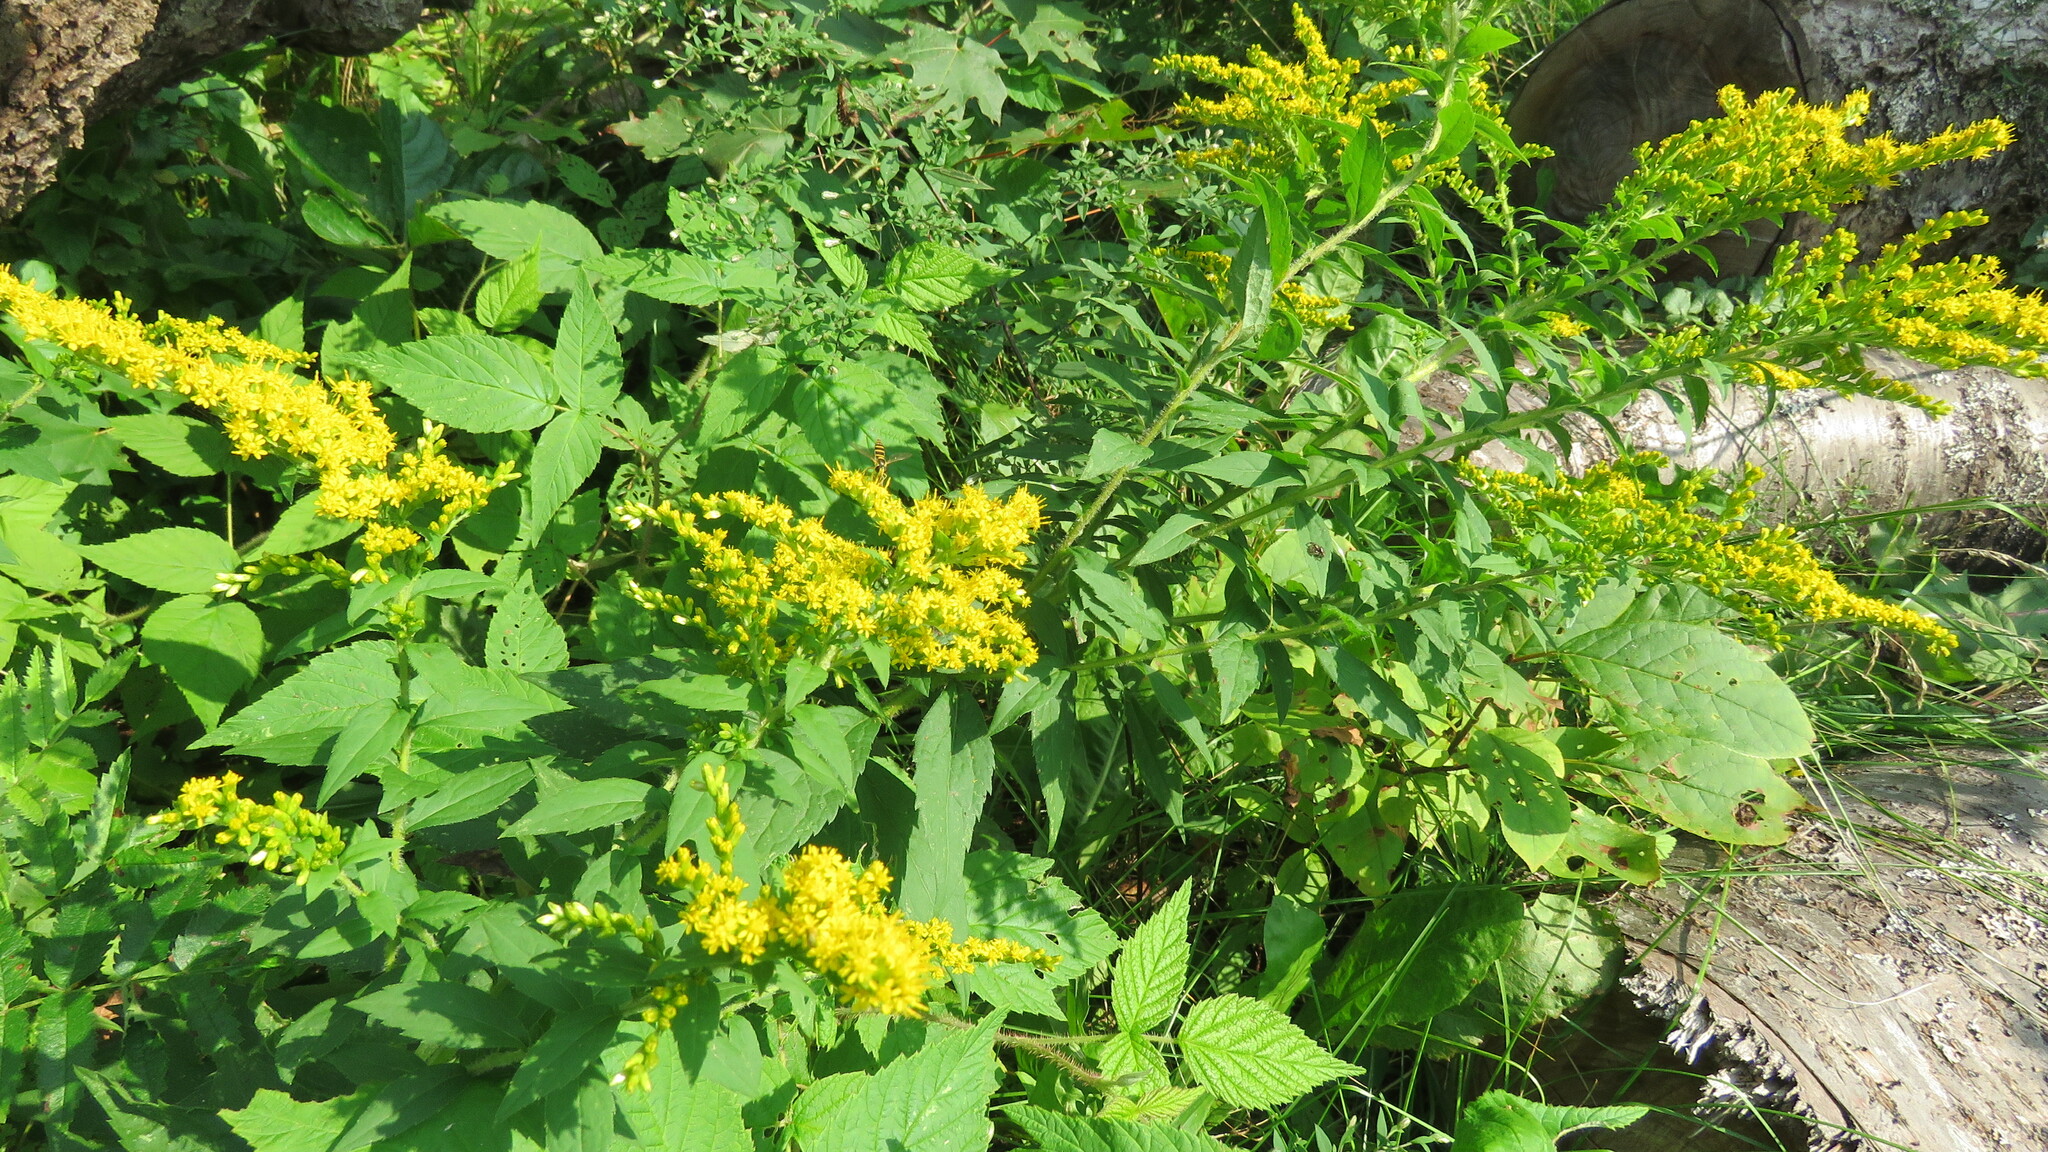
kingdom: Plantae
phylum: Tracheophyta
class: Magnoliopsida
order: Asterales
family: Asteraceae
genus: Solidago
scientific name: Solidago rugosa
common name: Rough-stemmed goldenrod
